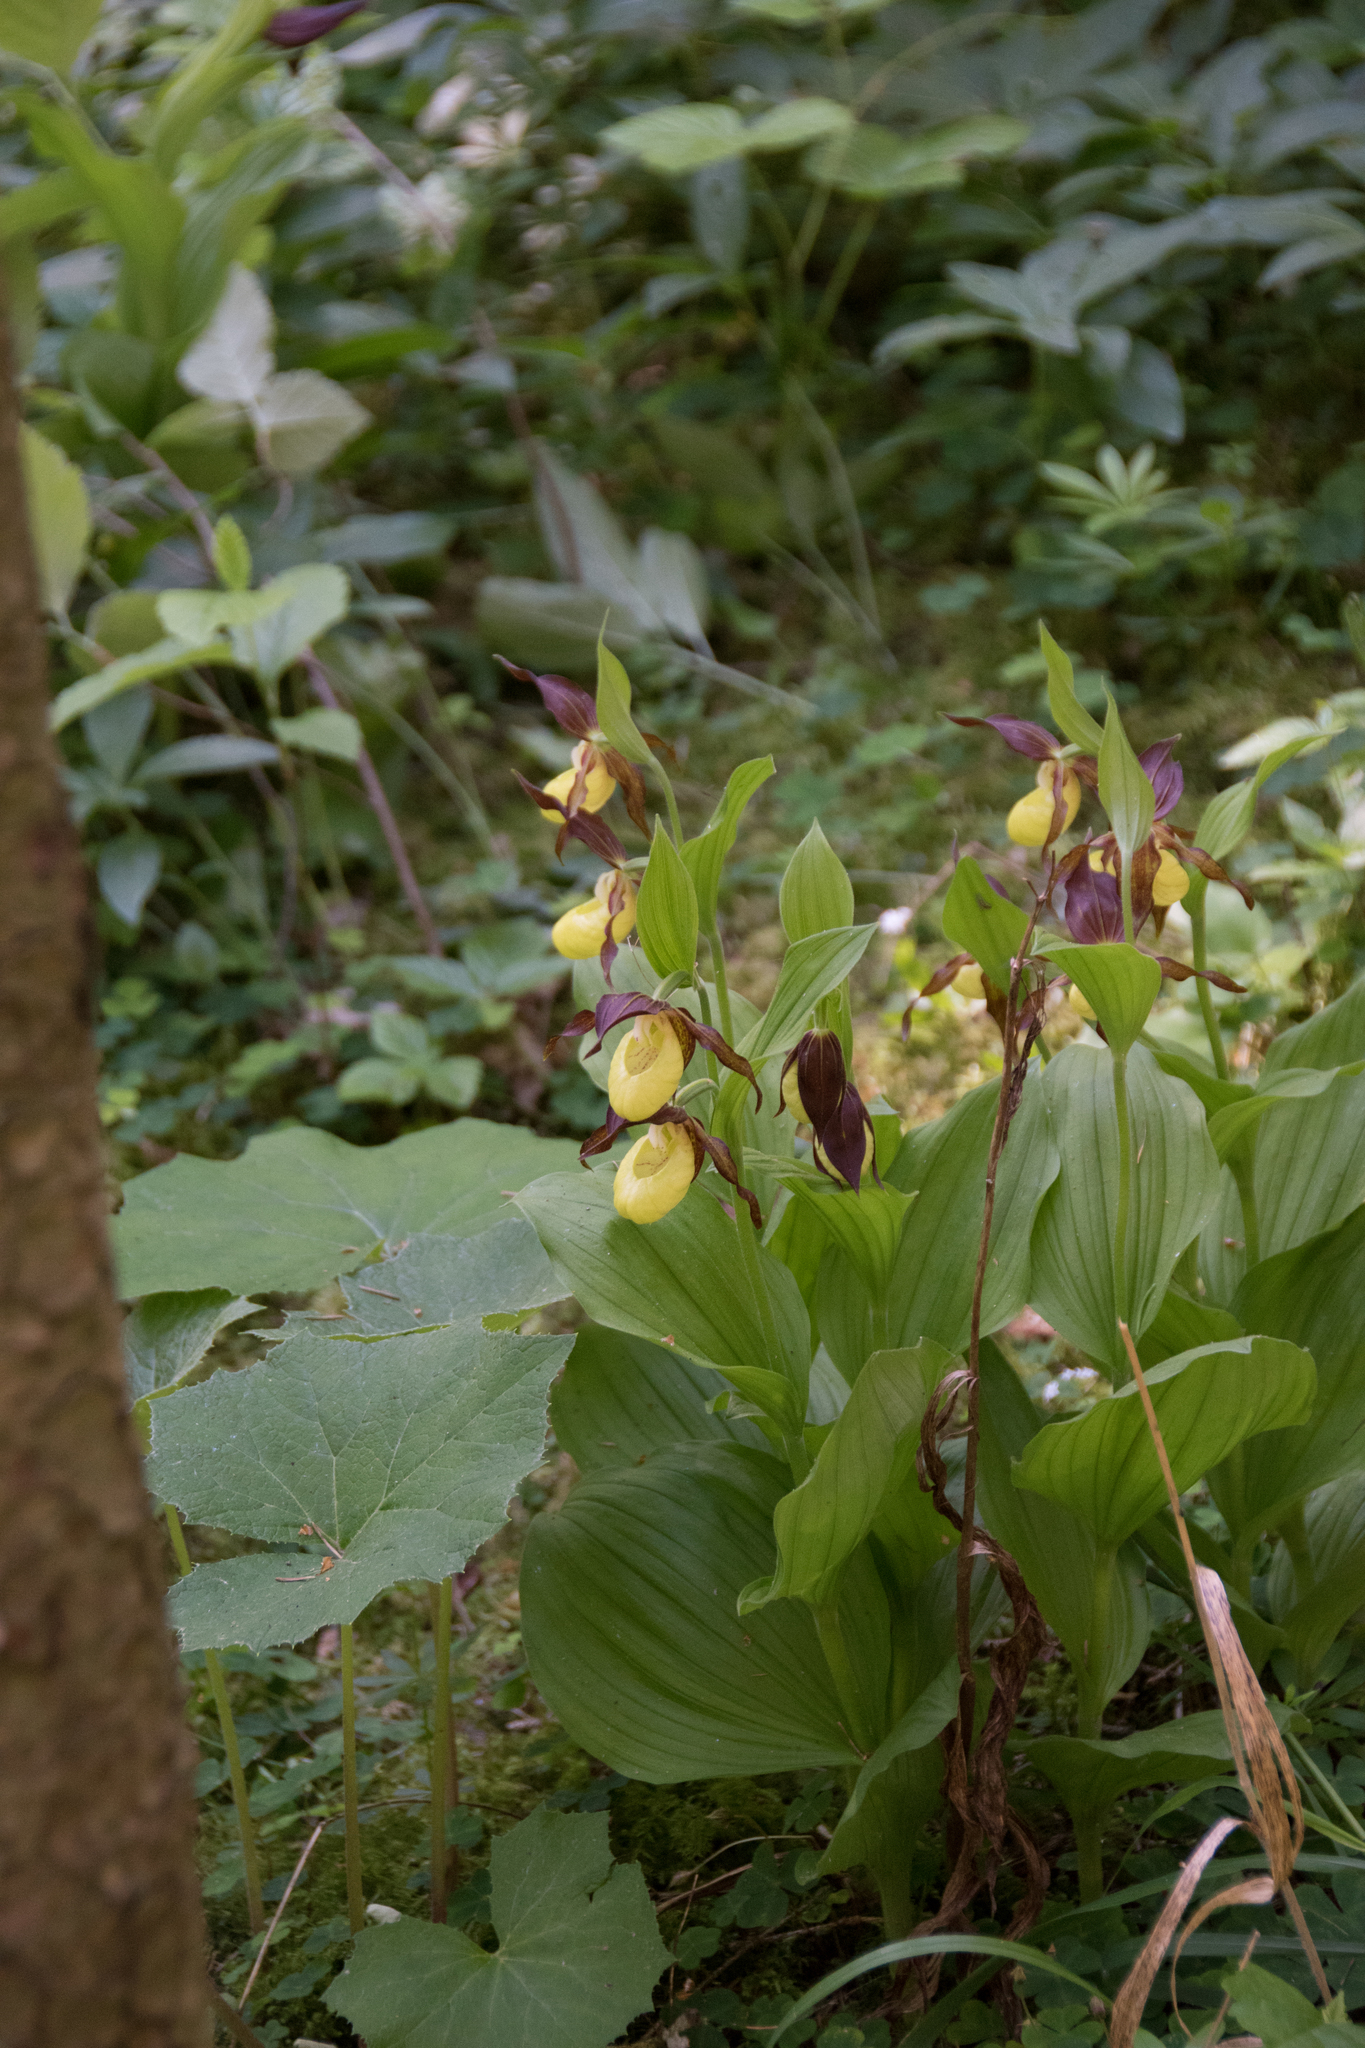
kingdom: Plantae
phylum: Tracheophyta
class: Liliopsida
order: Asparagales
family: Orchidaceae
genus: Cypripedium
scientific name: Cypripedium calceolus
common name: Lady's-slipper
